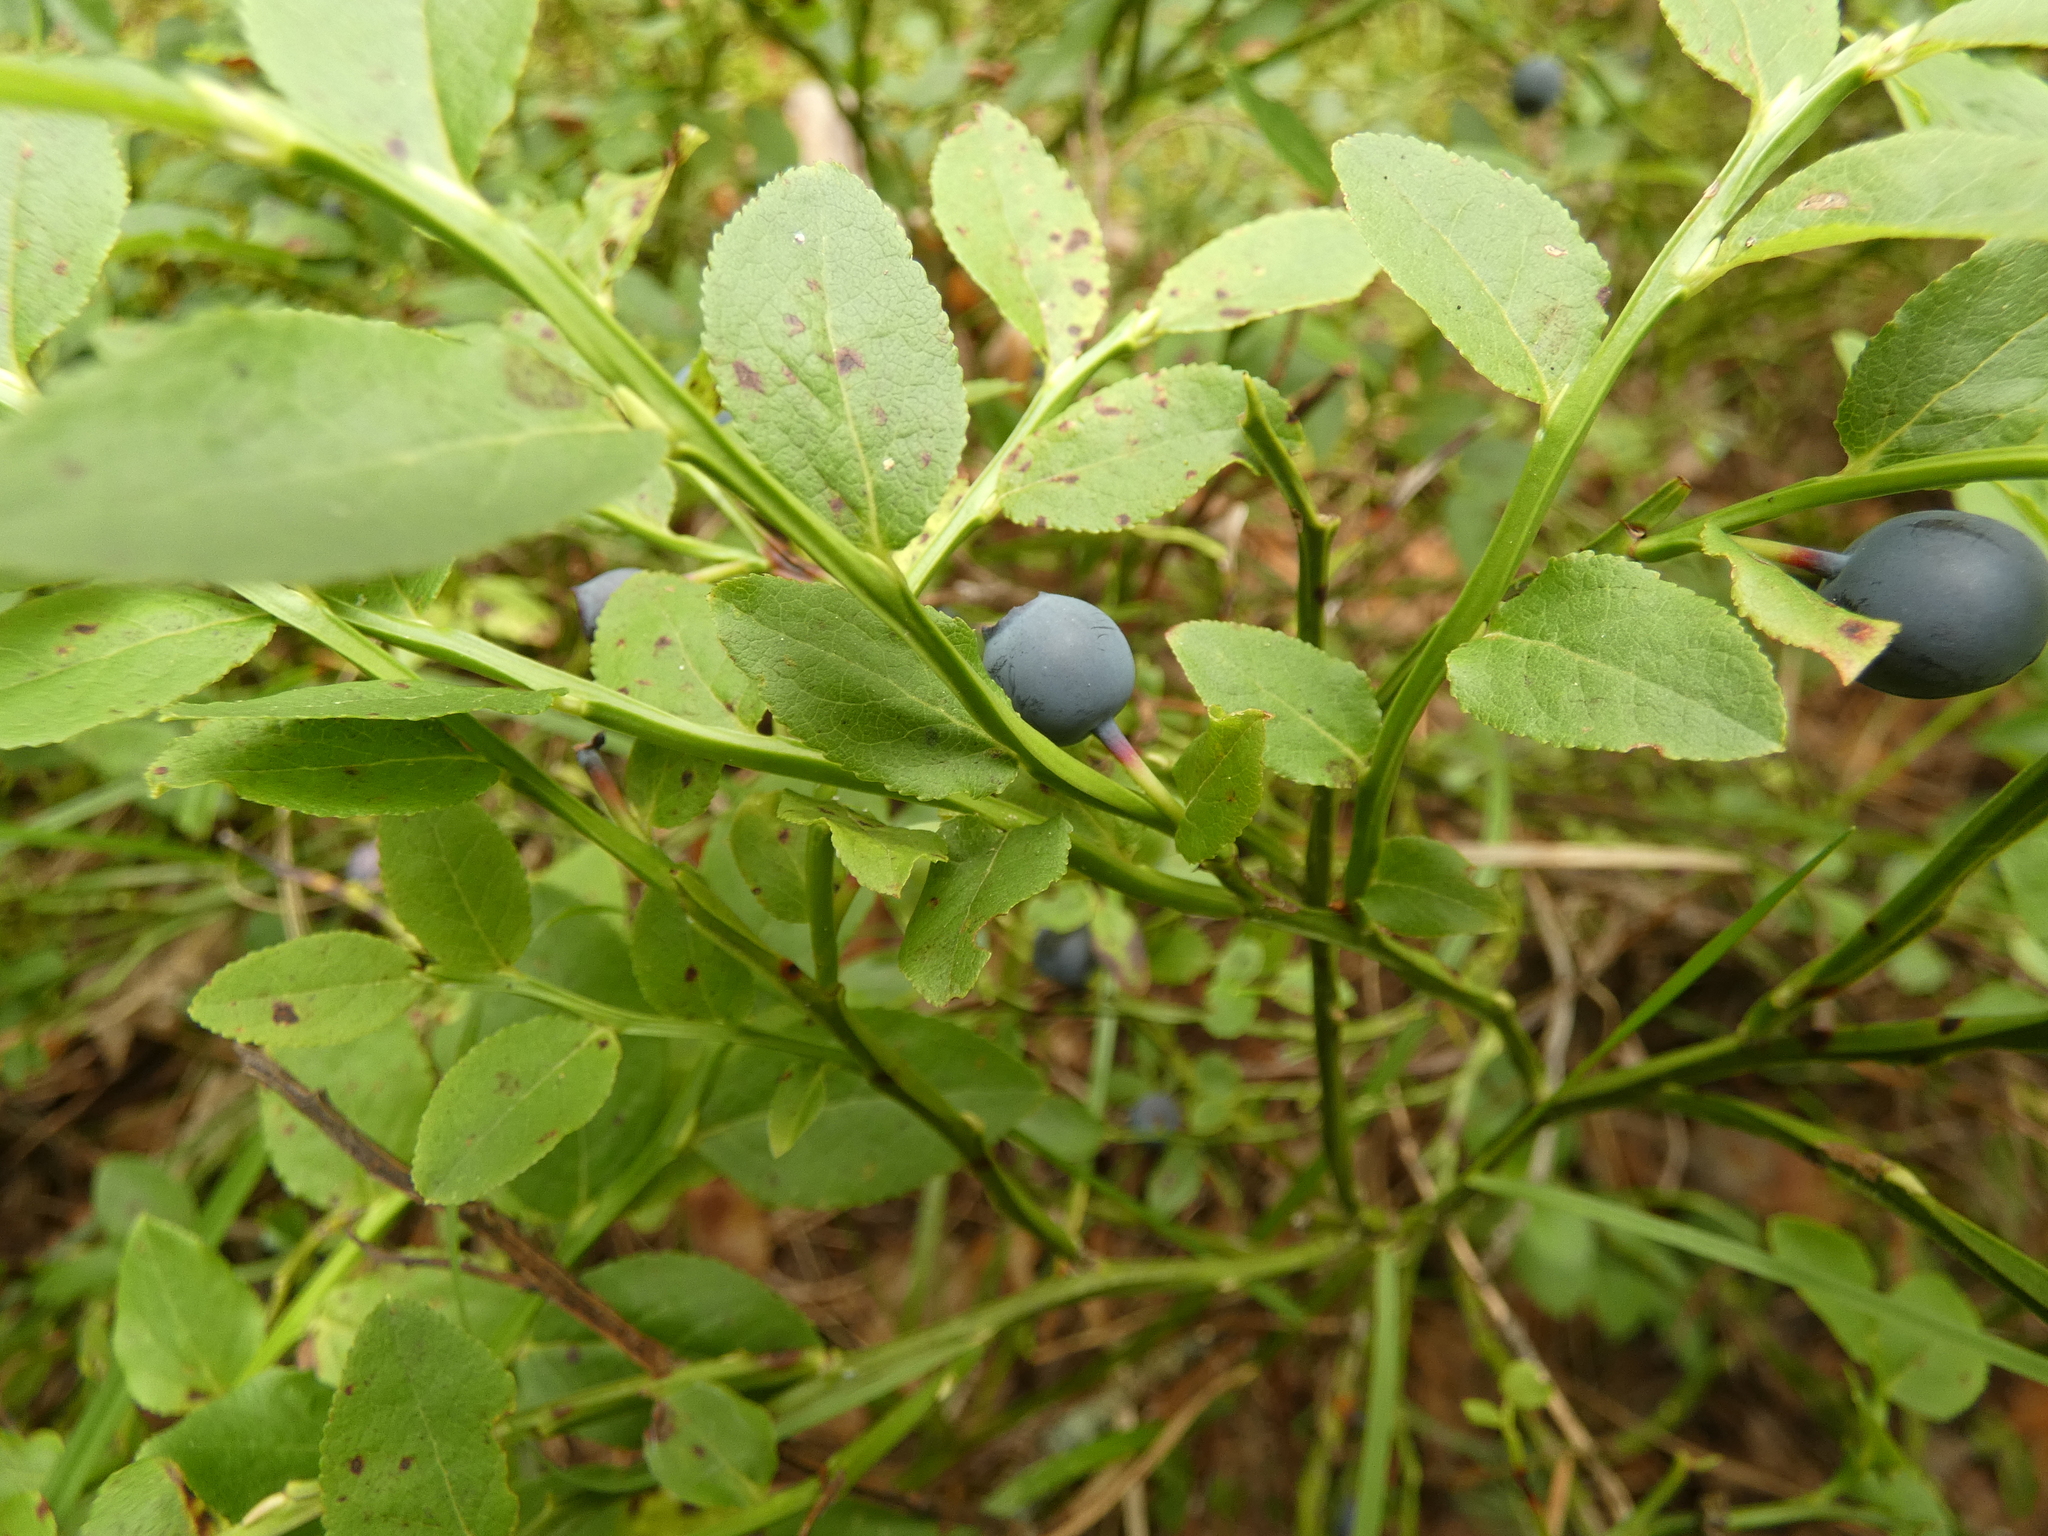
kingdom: Plantae
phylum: Tracheophyta
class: Magnoliopsida
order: Ericales
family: Ericaceae
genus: Vaccinium
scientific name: Vaccinium myrtillus
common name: Bilberry
